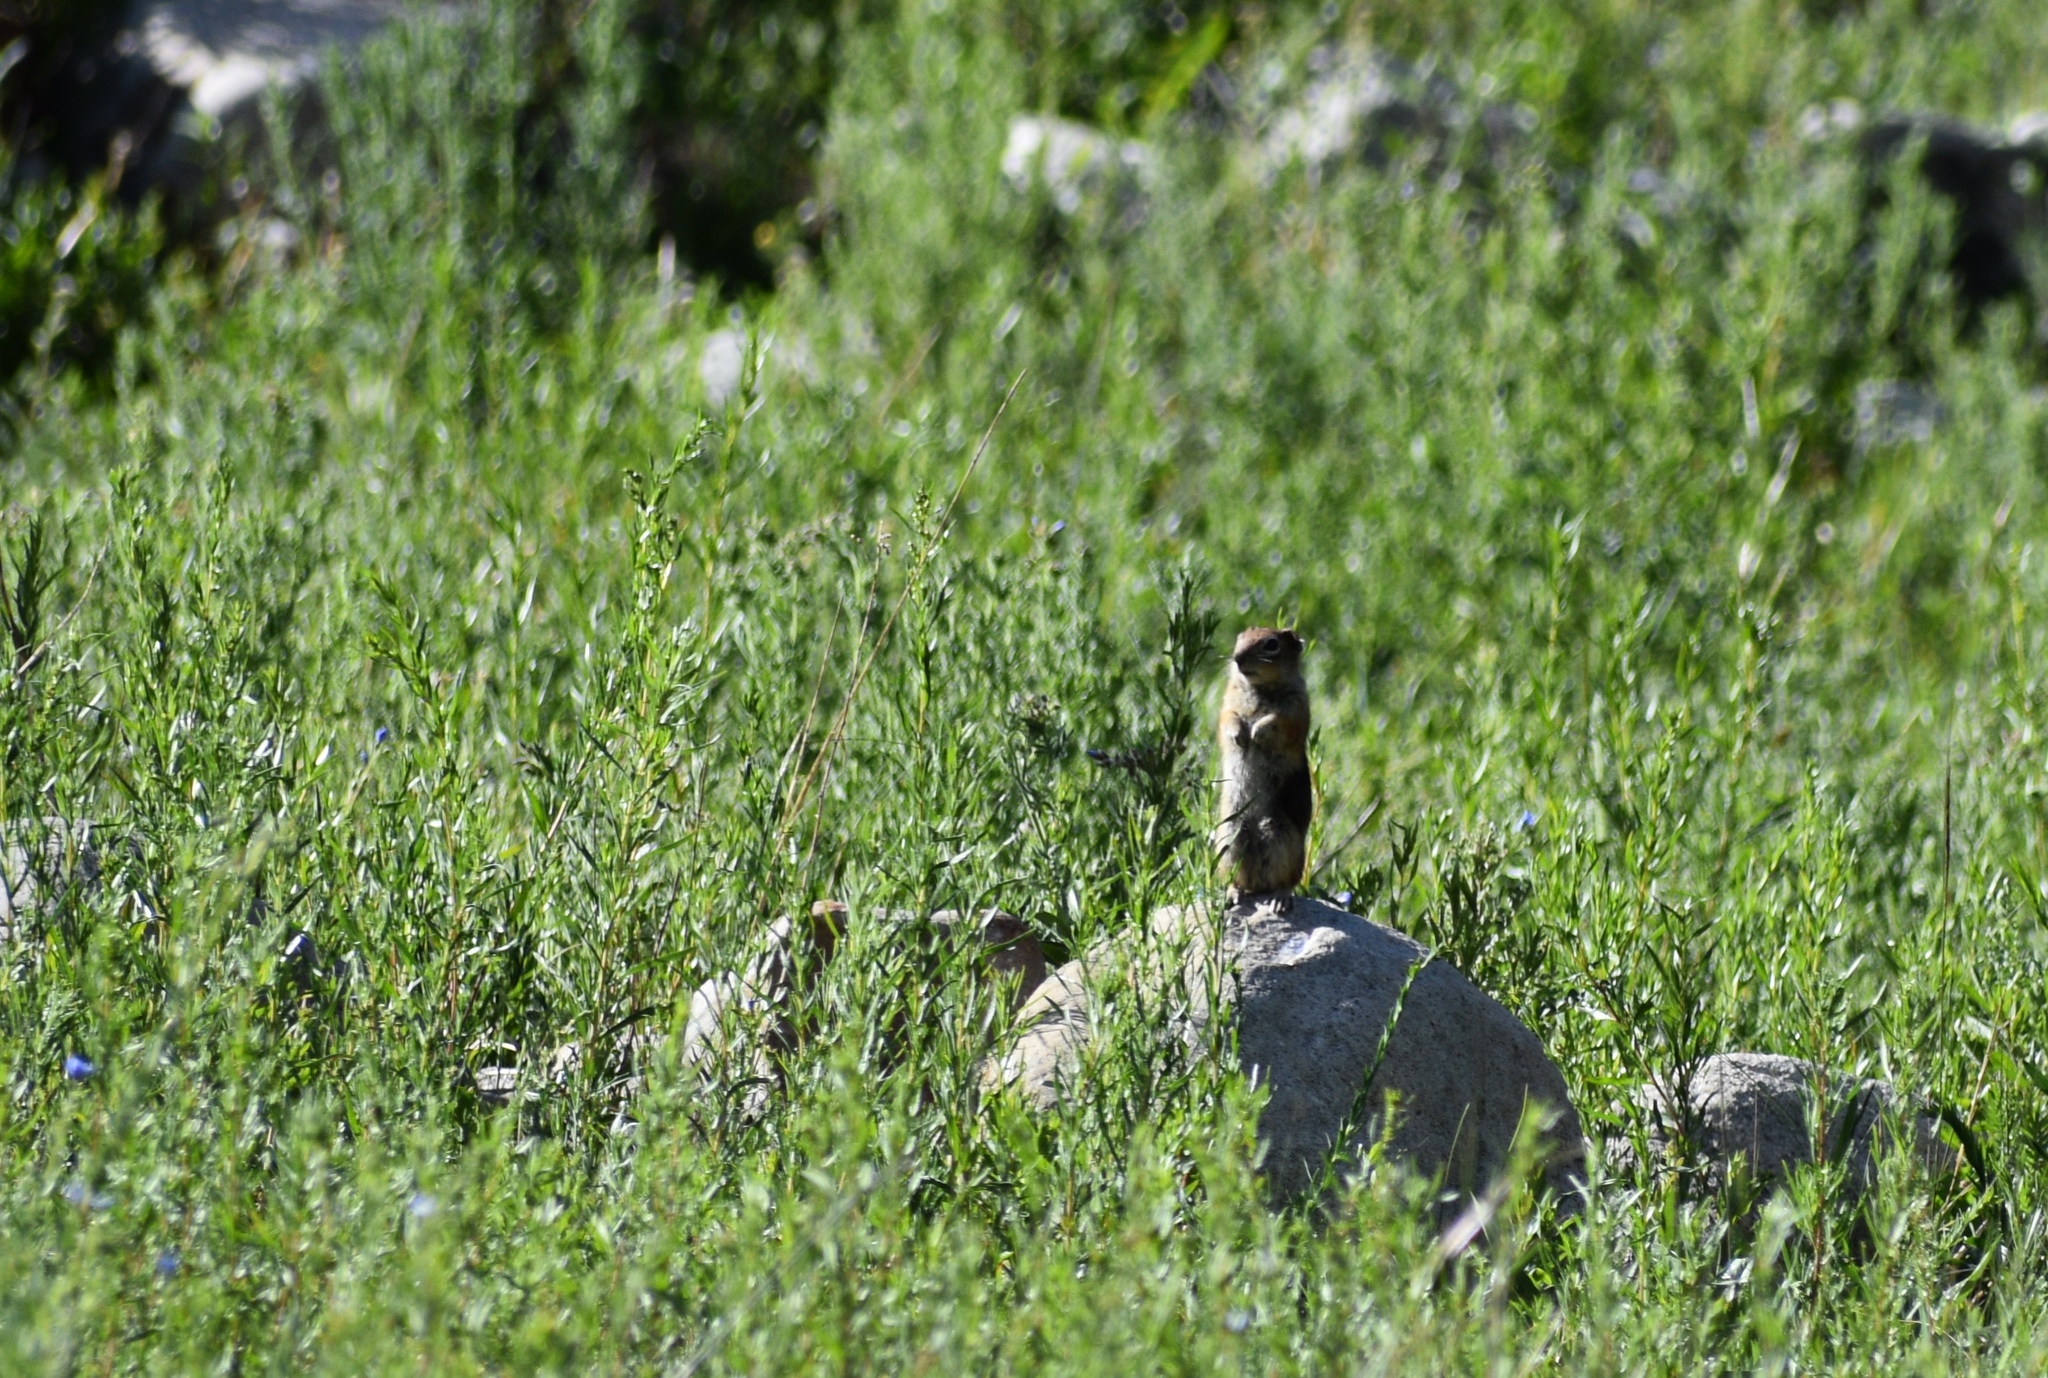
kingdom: Animalia
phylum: Chordata
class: Mammalia
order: Rodentia
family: Sciuridae
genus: Callospermophilus
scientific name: Callospermophilus lateralis
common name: Golden-mantled ground squirrel
